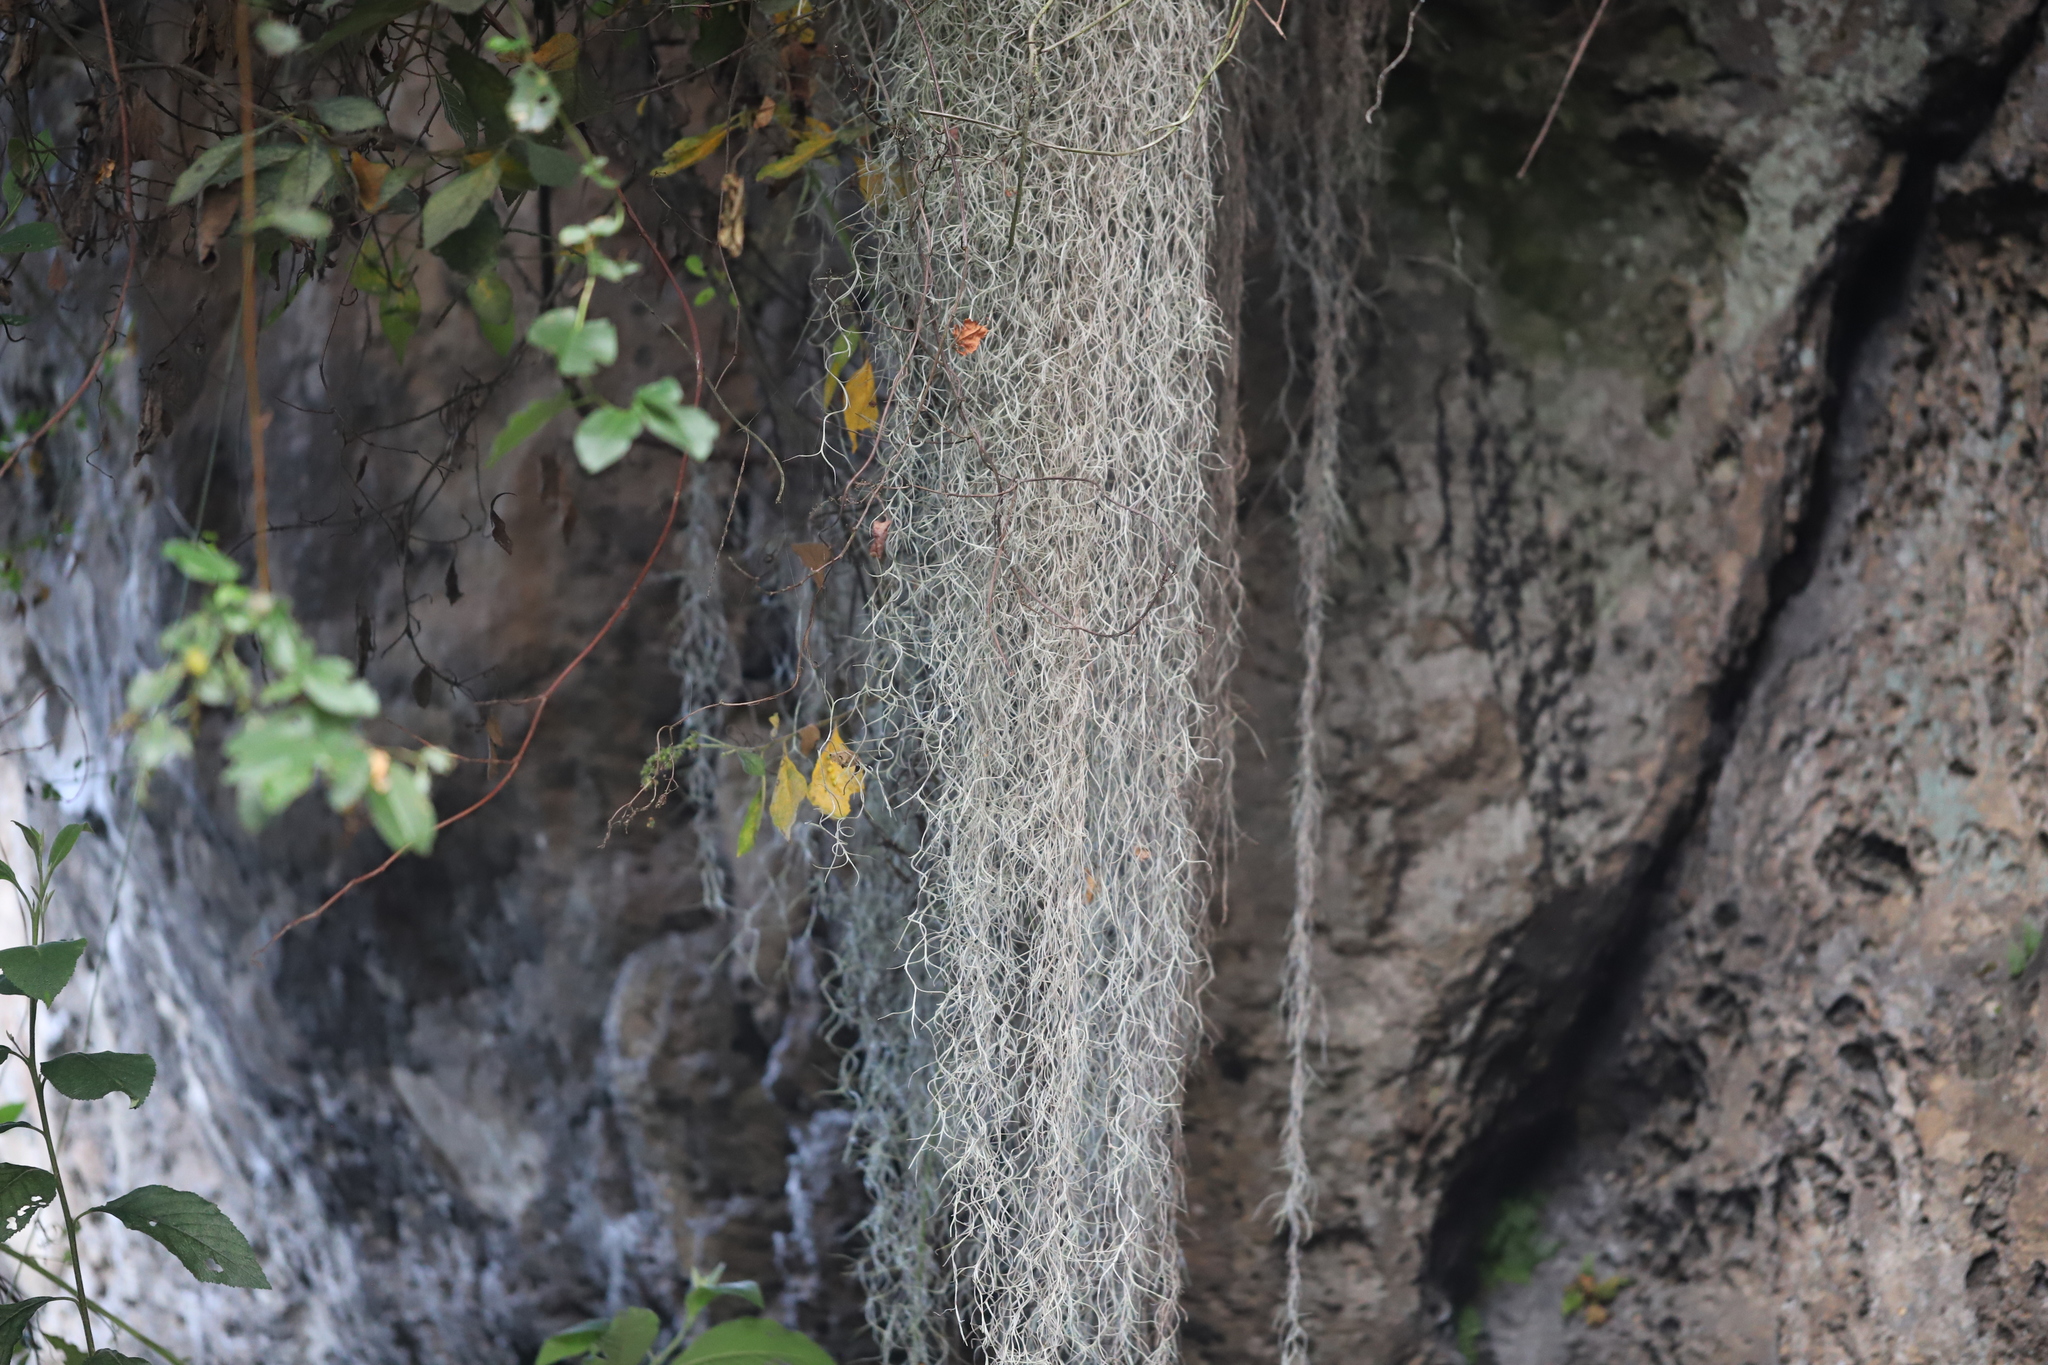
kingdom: Plantae
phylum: Tracheophyta
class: Liliopsida
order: Poales
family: Bromeliaceae
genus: Tillandsia
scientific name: Tillandsia usneoides
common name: Spanish moss
